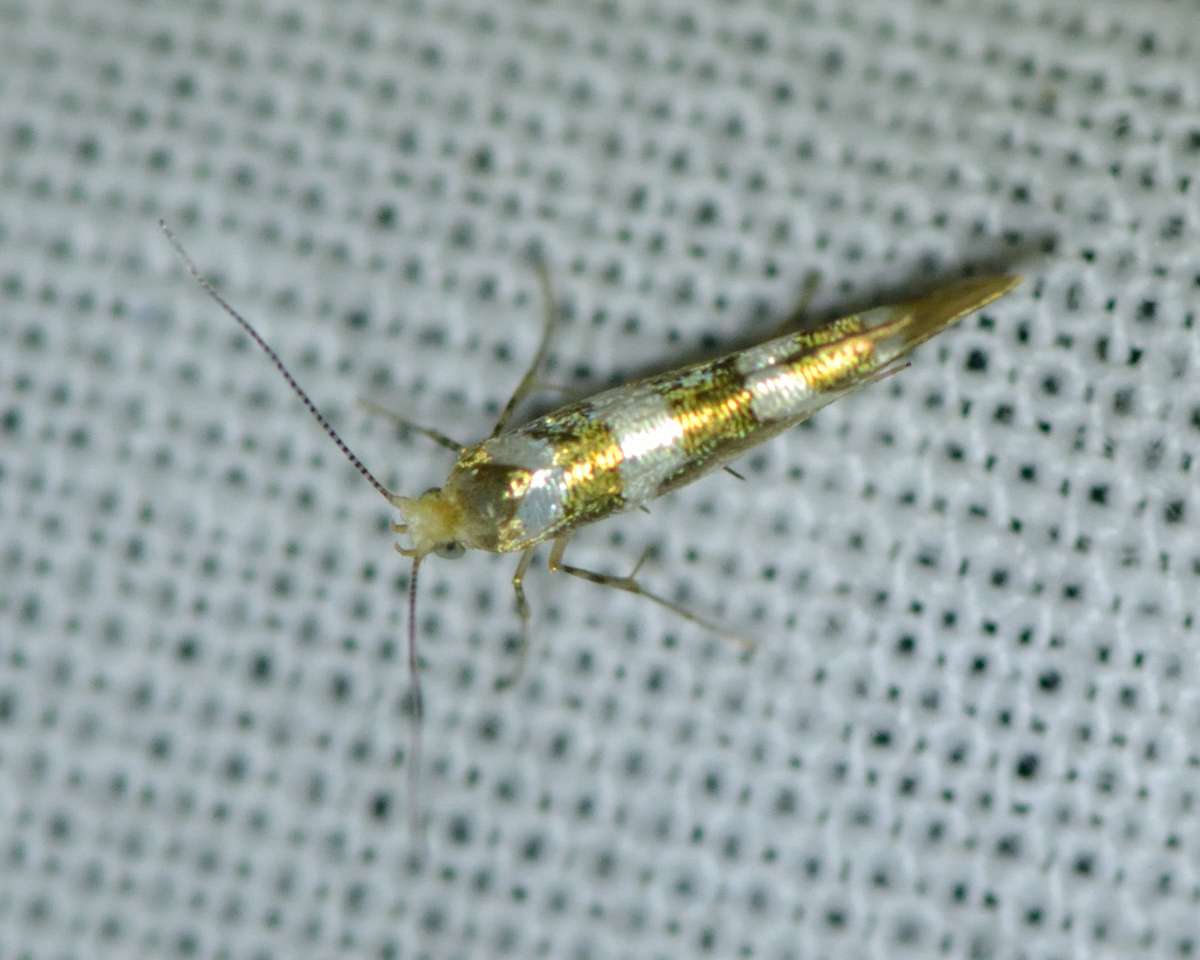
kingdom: Animalia
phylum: Arthropoda
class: Insecta
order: Lepidoptera
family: Argyresthiidae
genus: Argyresthia
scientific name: Argyresthia goedartella
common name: Golden argent
